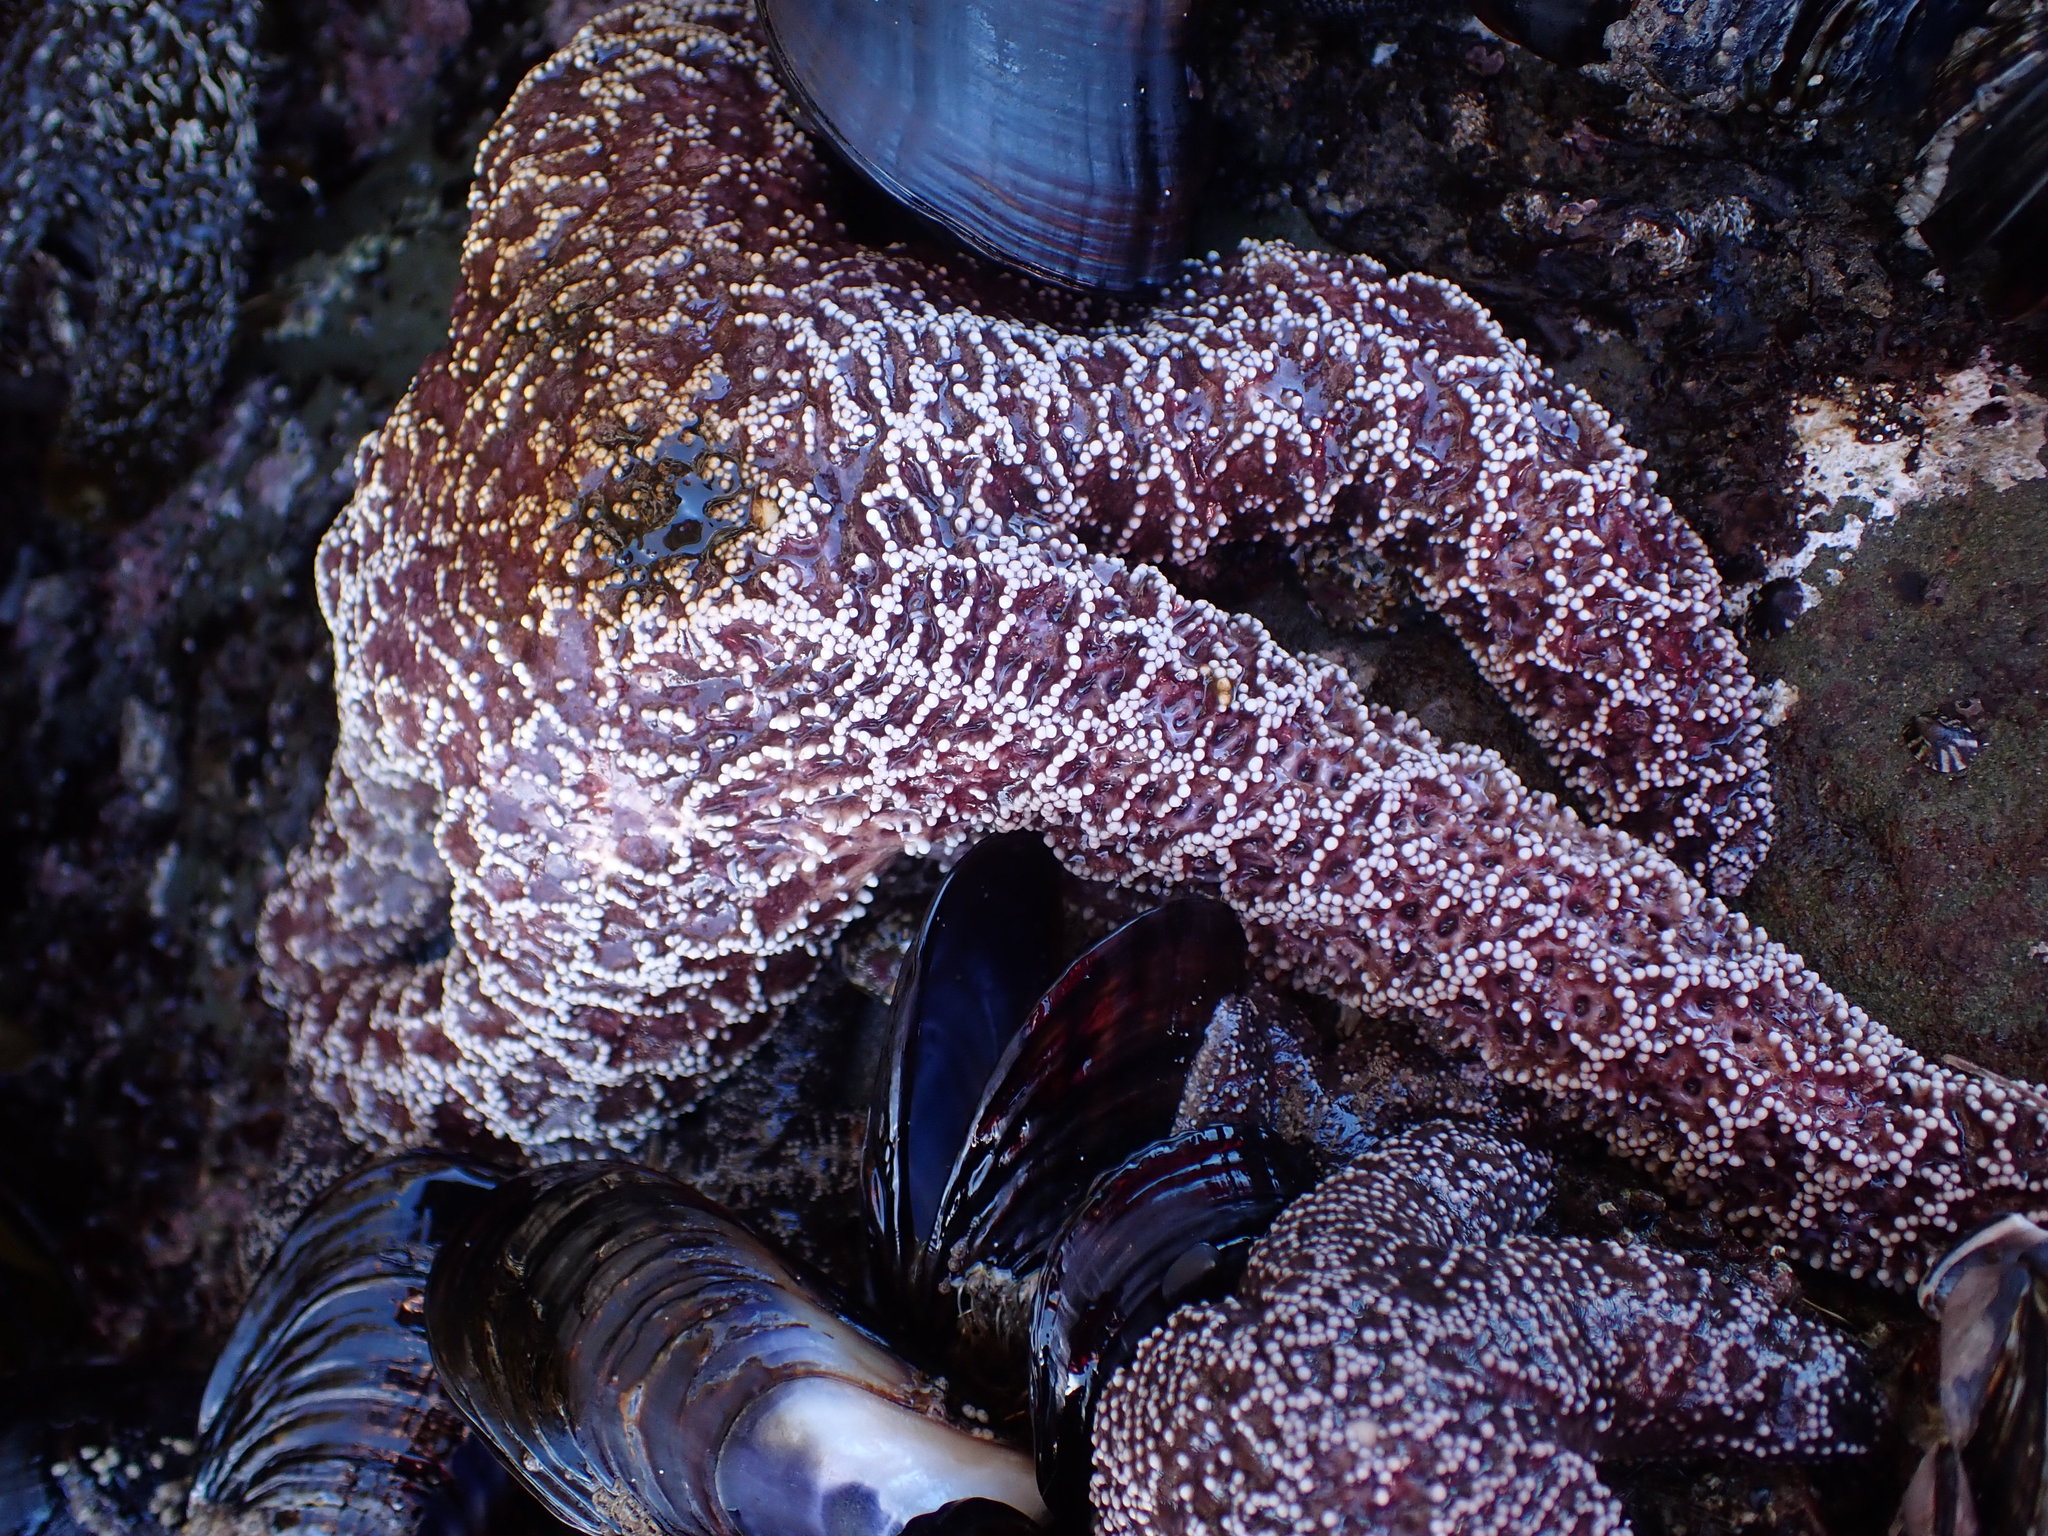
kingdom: Animalia
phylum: Echinodermata
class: Asteroidea
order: Forcipulatida
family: Asteriidae
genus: Pisaster
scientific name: Pisaster ochraceus
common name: Ochre stars
